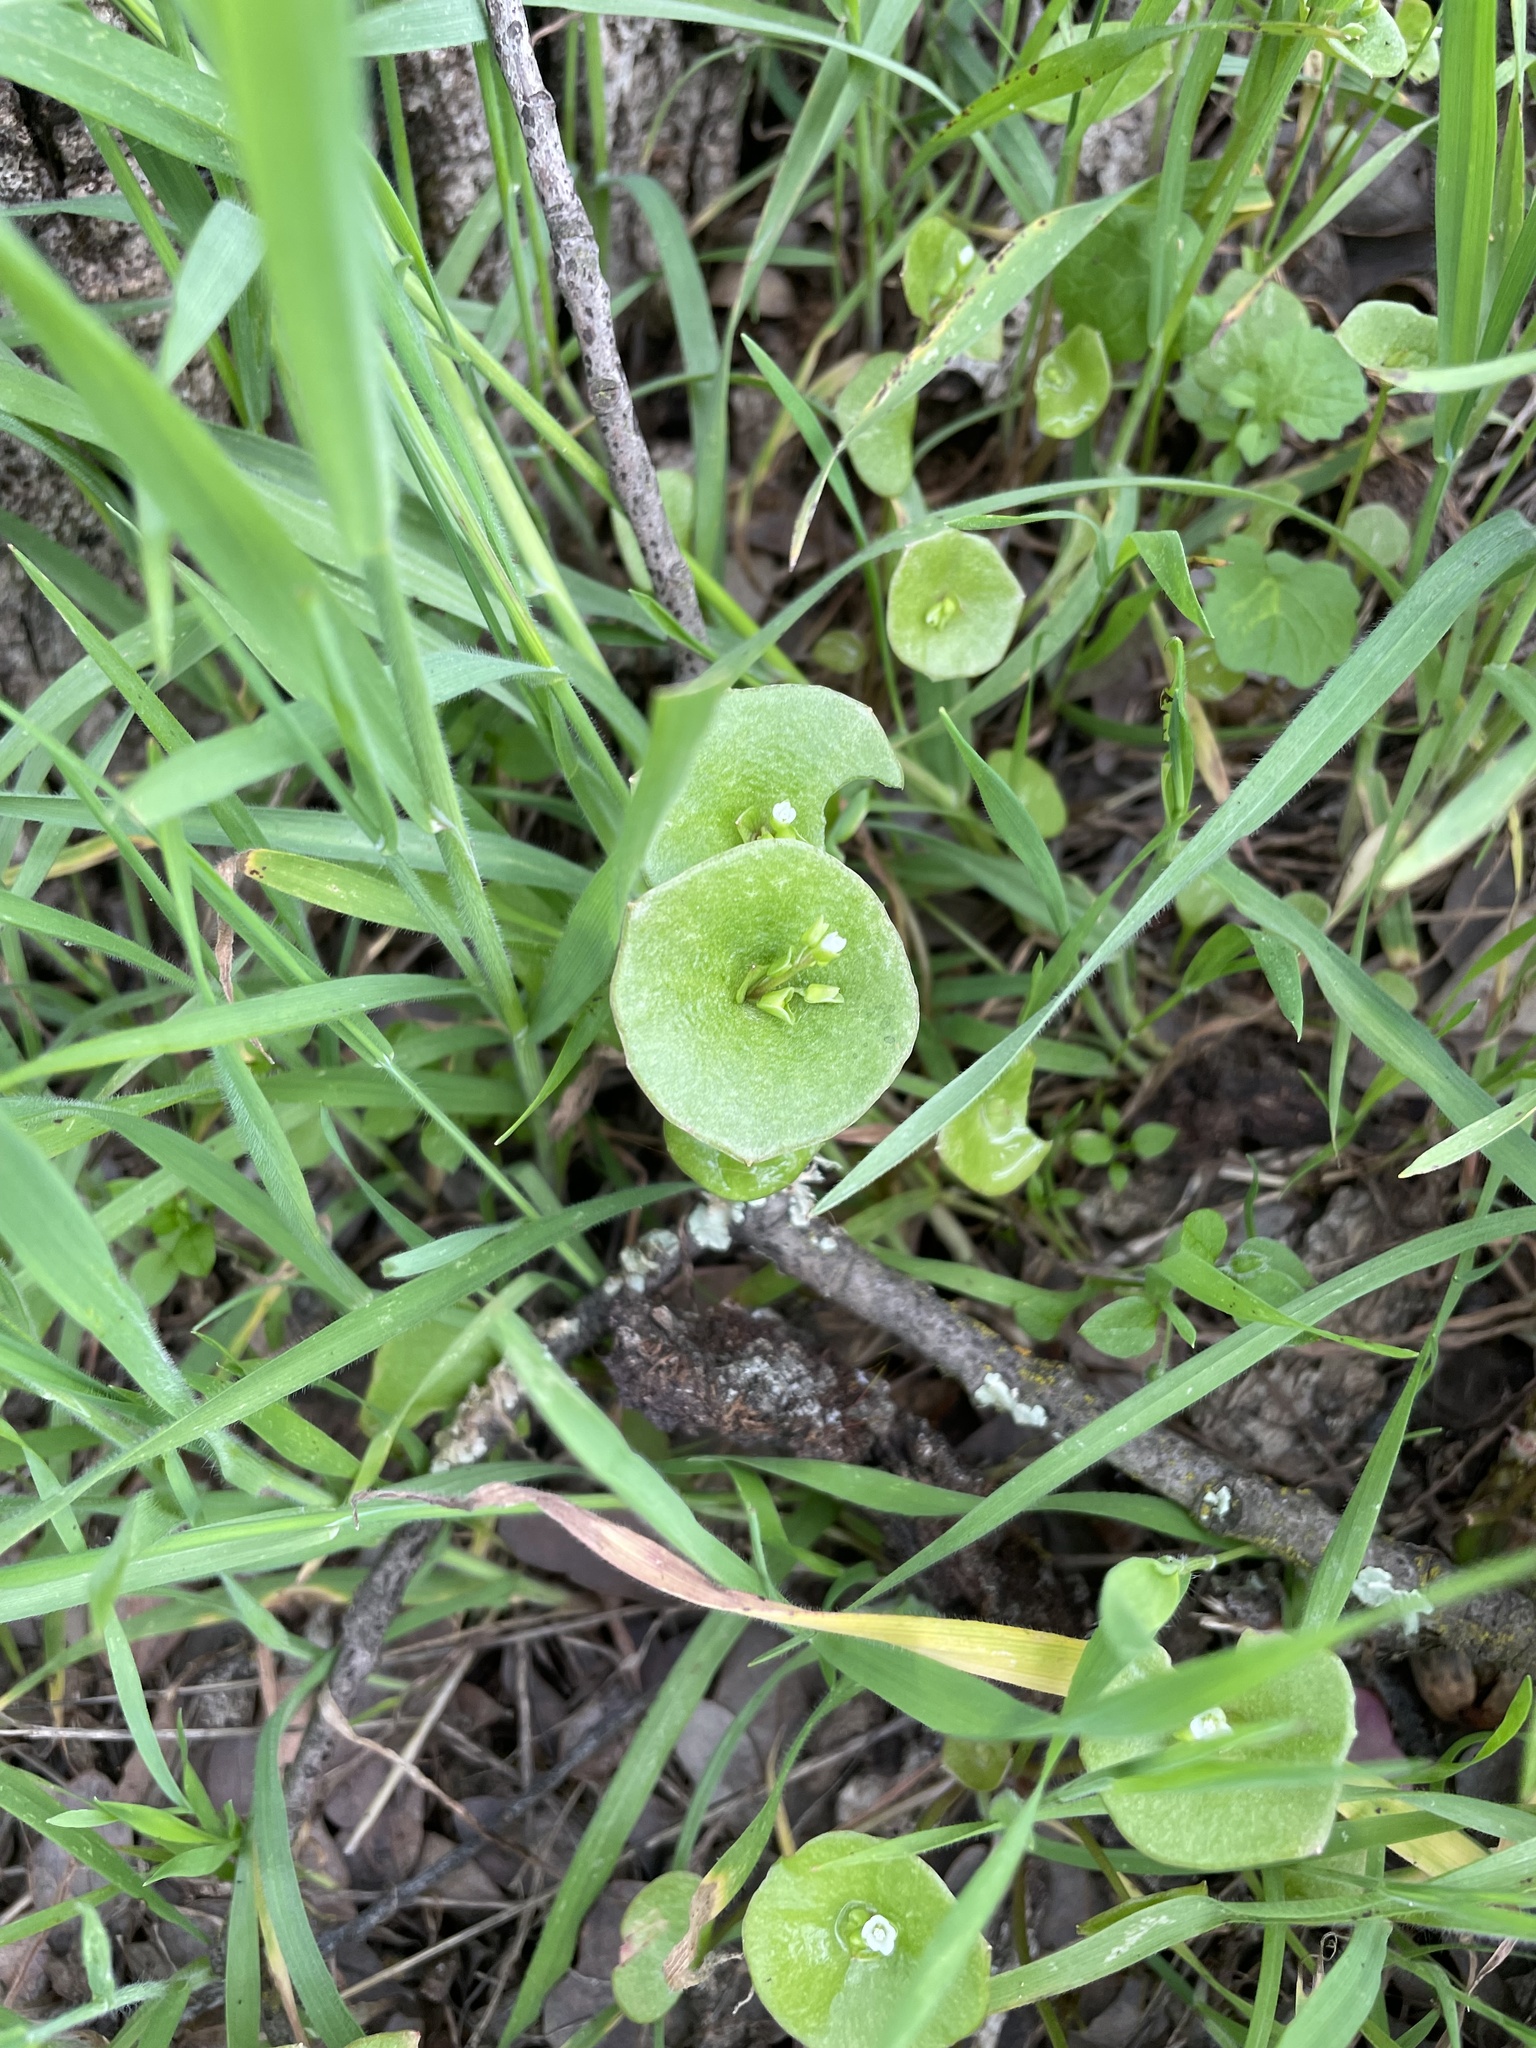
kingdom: Plantae
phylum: Tracheophyta
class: Magnoliopsida
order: Caryophyllales
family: Montiaceae
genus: Claytonia
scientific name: Claytonia perfoliata
